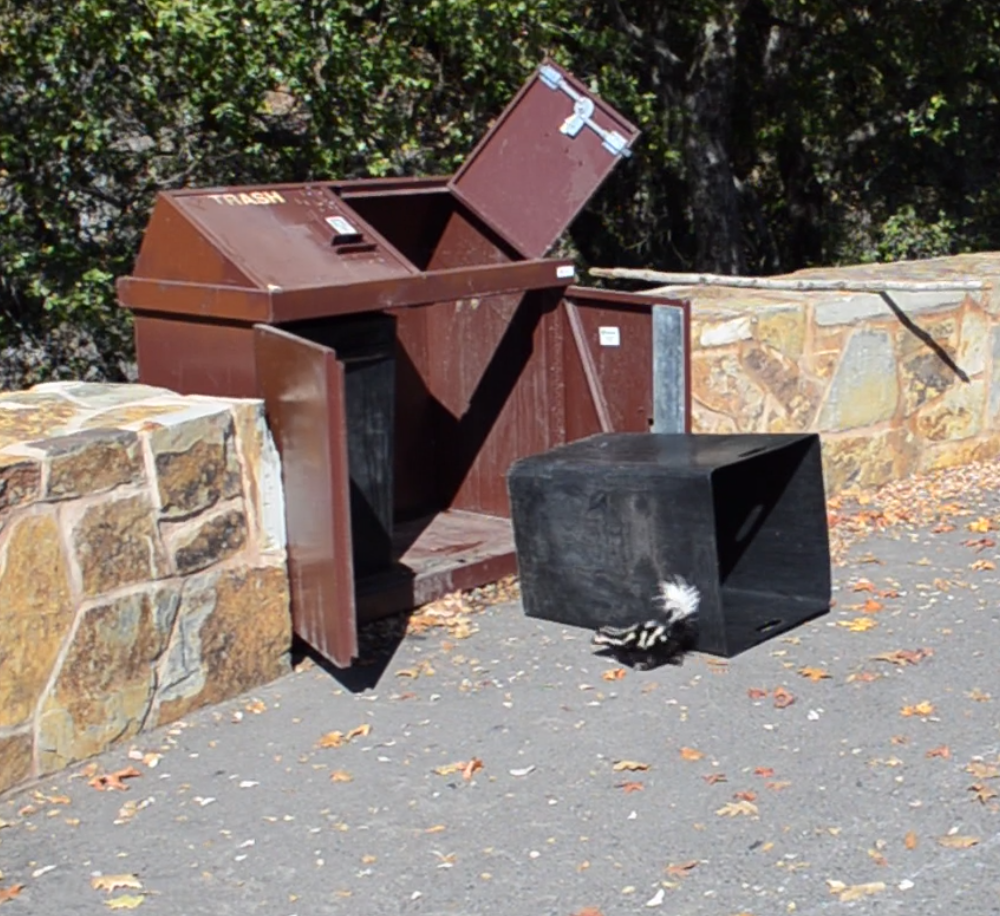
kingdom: Animalia
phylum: Chordata
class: Mammalia
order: Carnivora
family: Mephitidae
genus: Spilogale
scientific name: Spilogale gracilis
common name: Western spotted skunk
